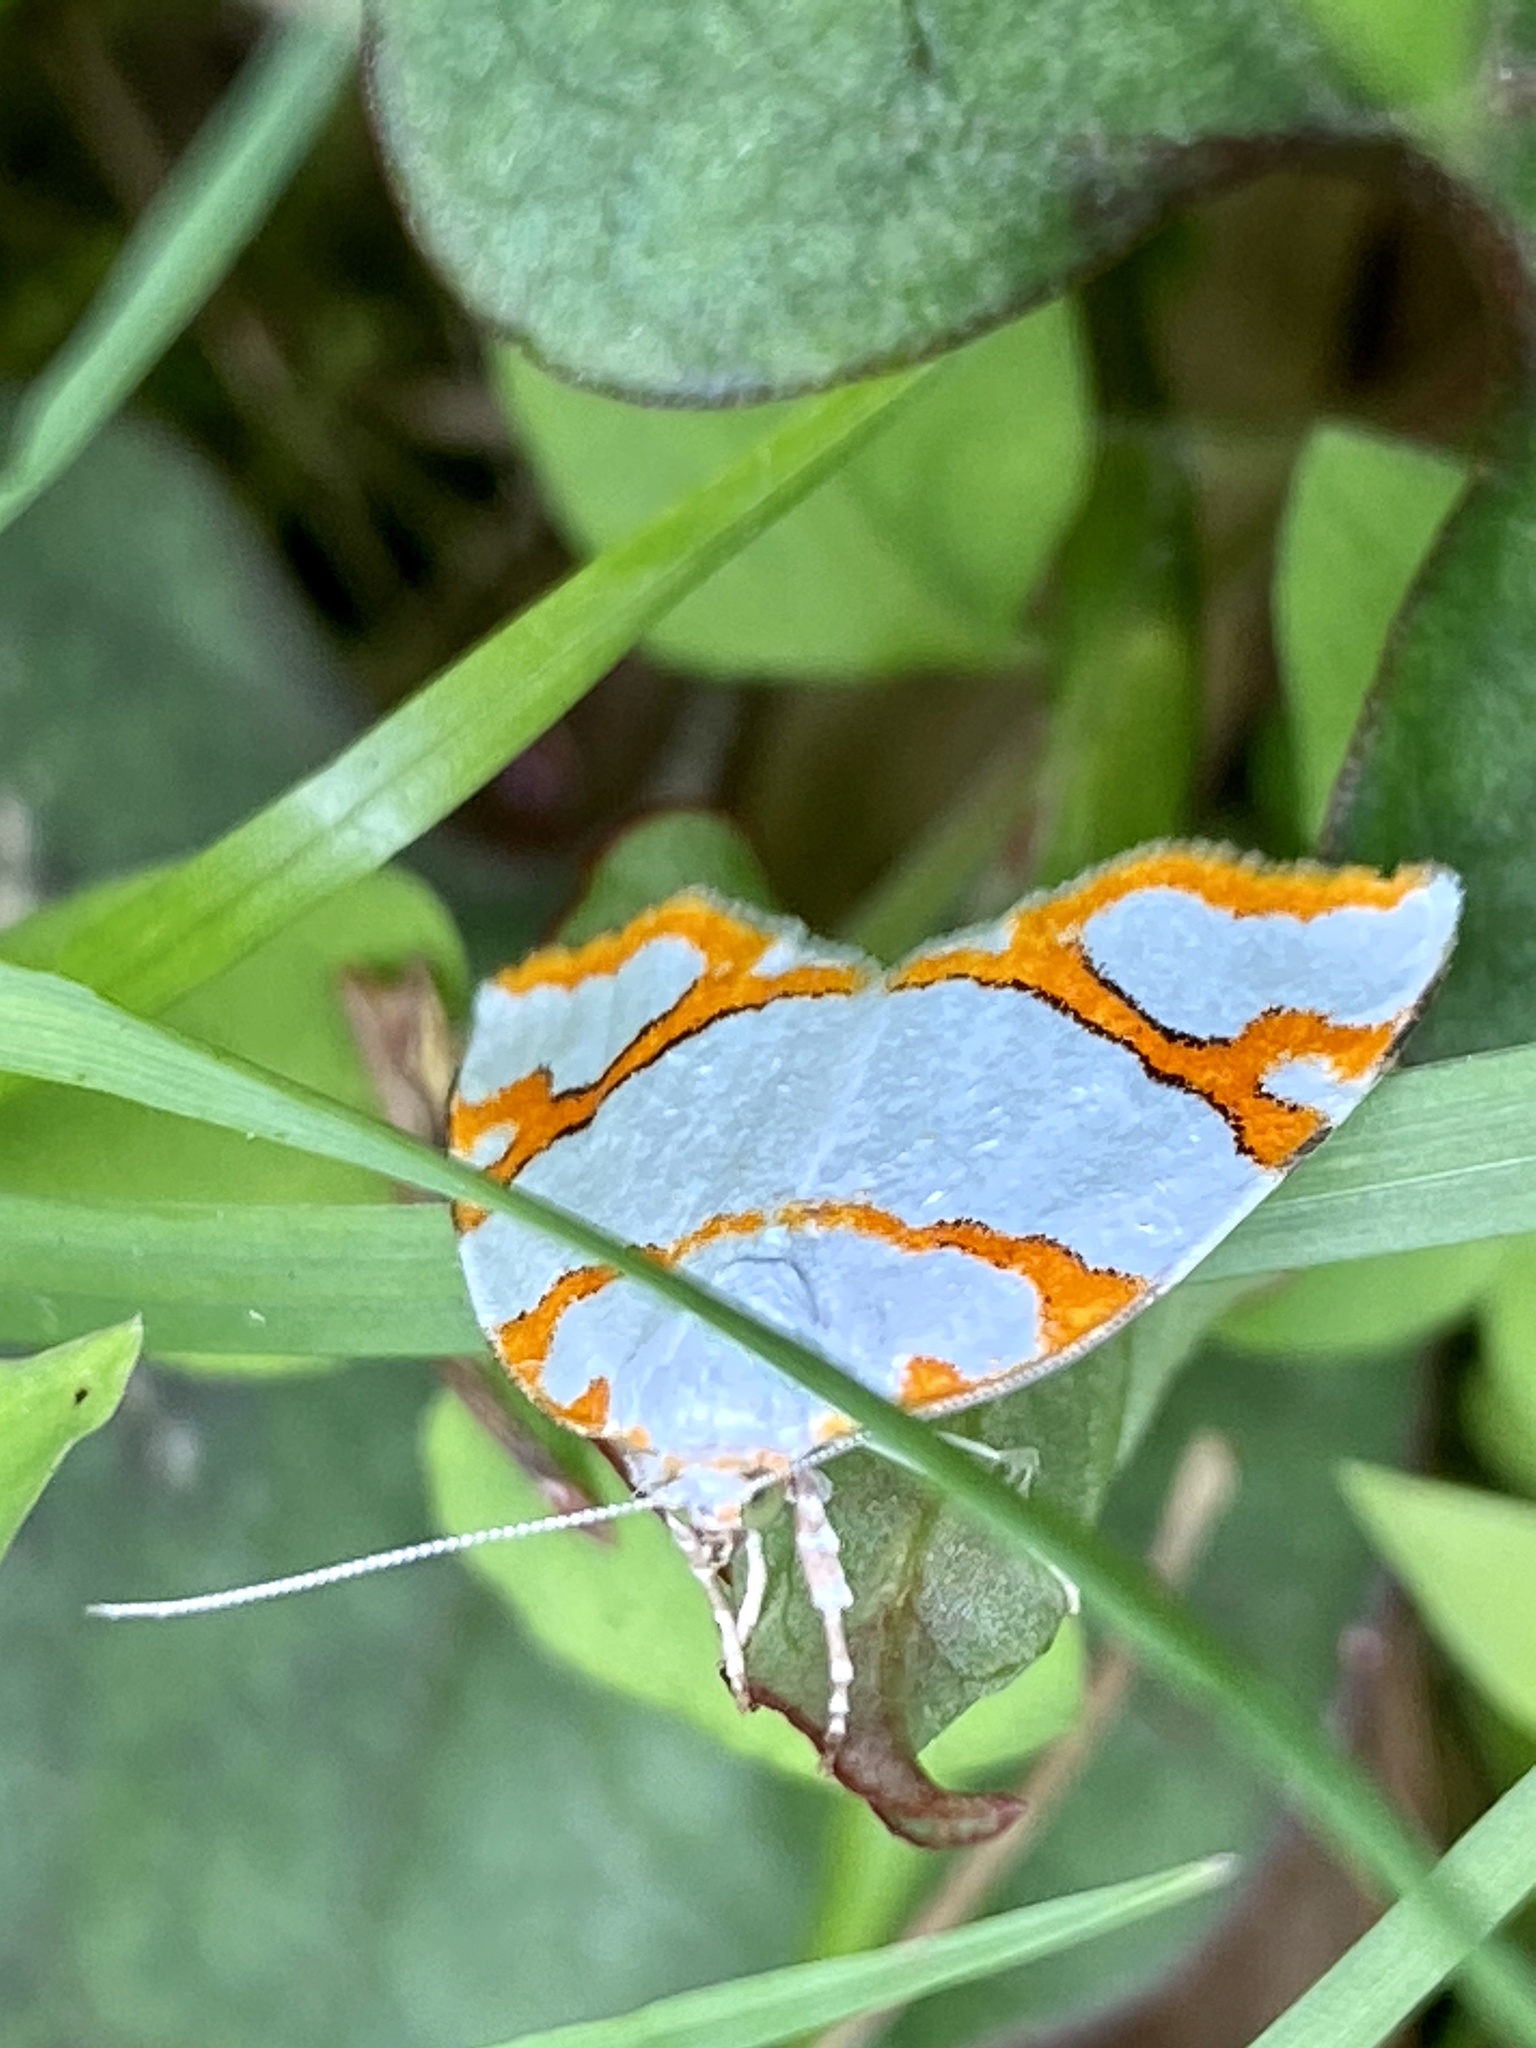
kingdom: Animalia
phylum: Arthropoda
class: Insecta
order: Lepidoptera
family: Nolidae
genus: Ariolica
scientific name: Ariolica argentea
